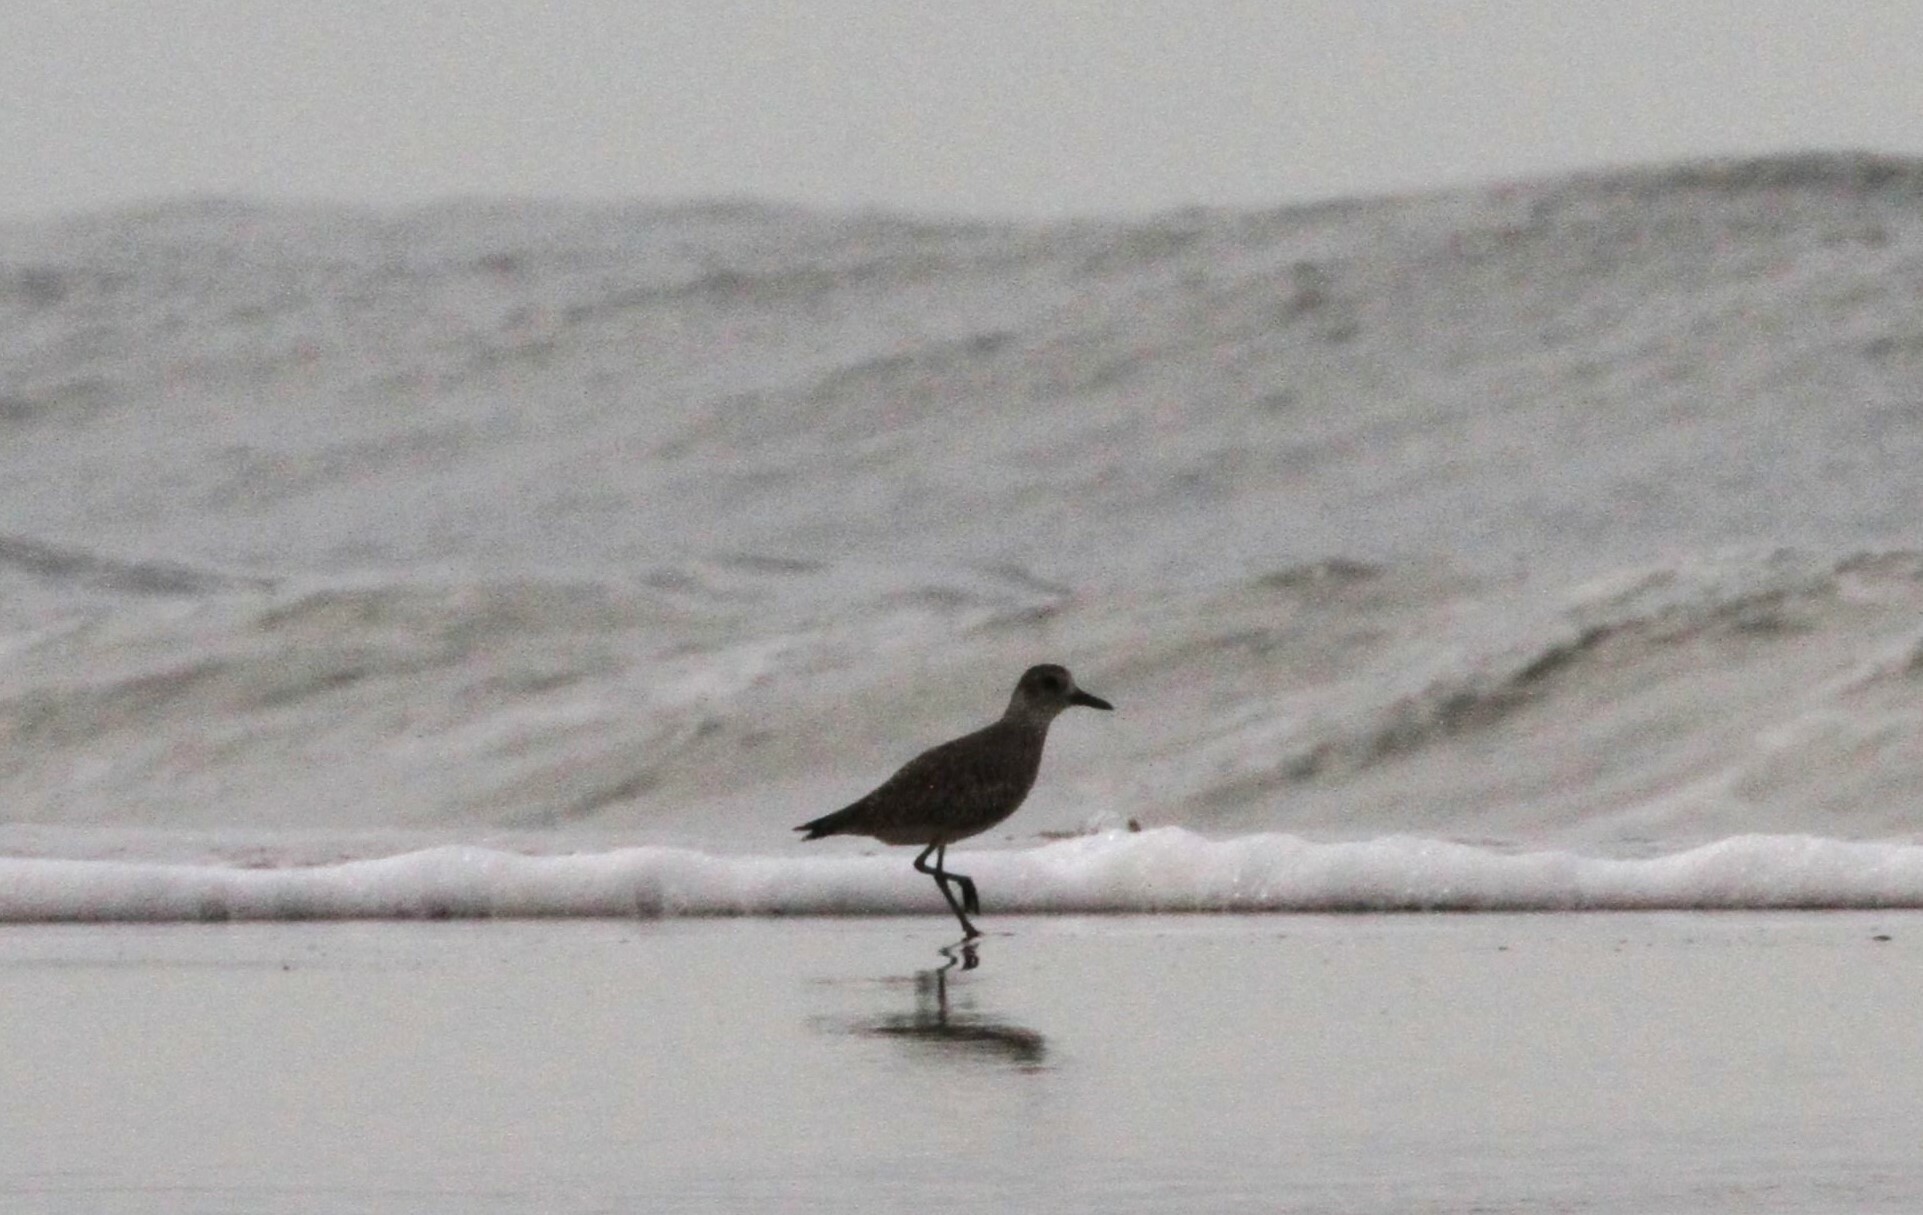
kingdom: Animalia
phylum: Chordata
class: Aves
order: Charadriiformes
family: Charadriidae
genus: Pluvialis
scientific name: Pluvialis squatarola
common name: Grey plover
